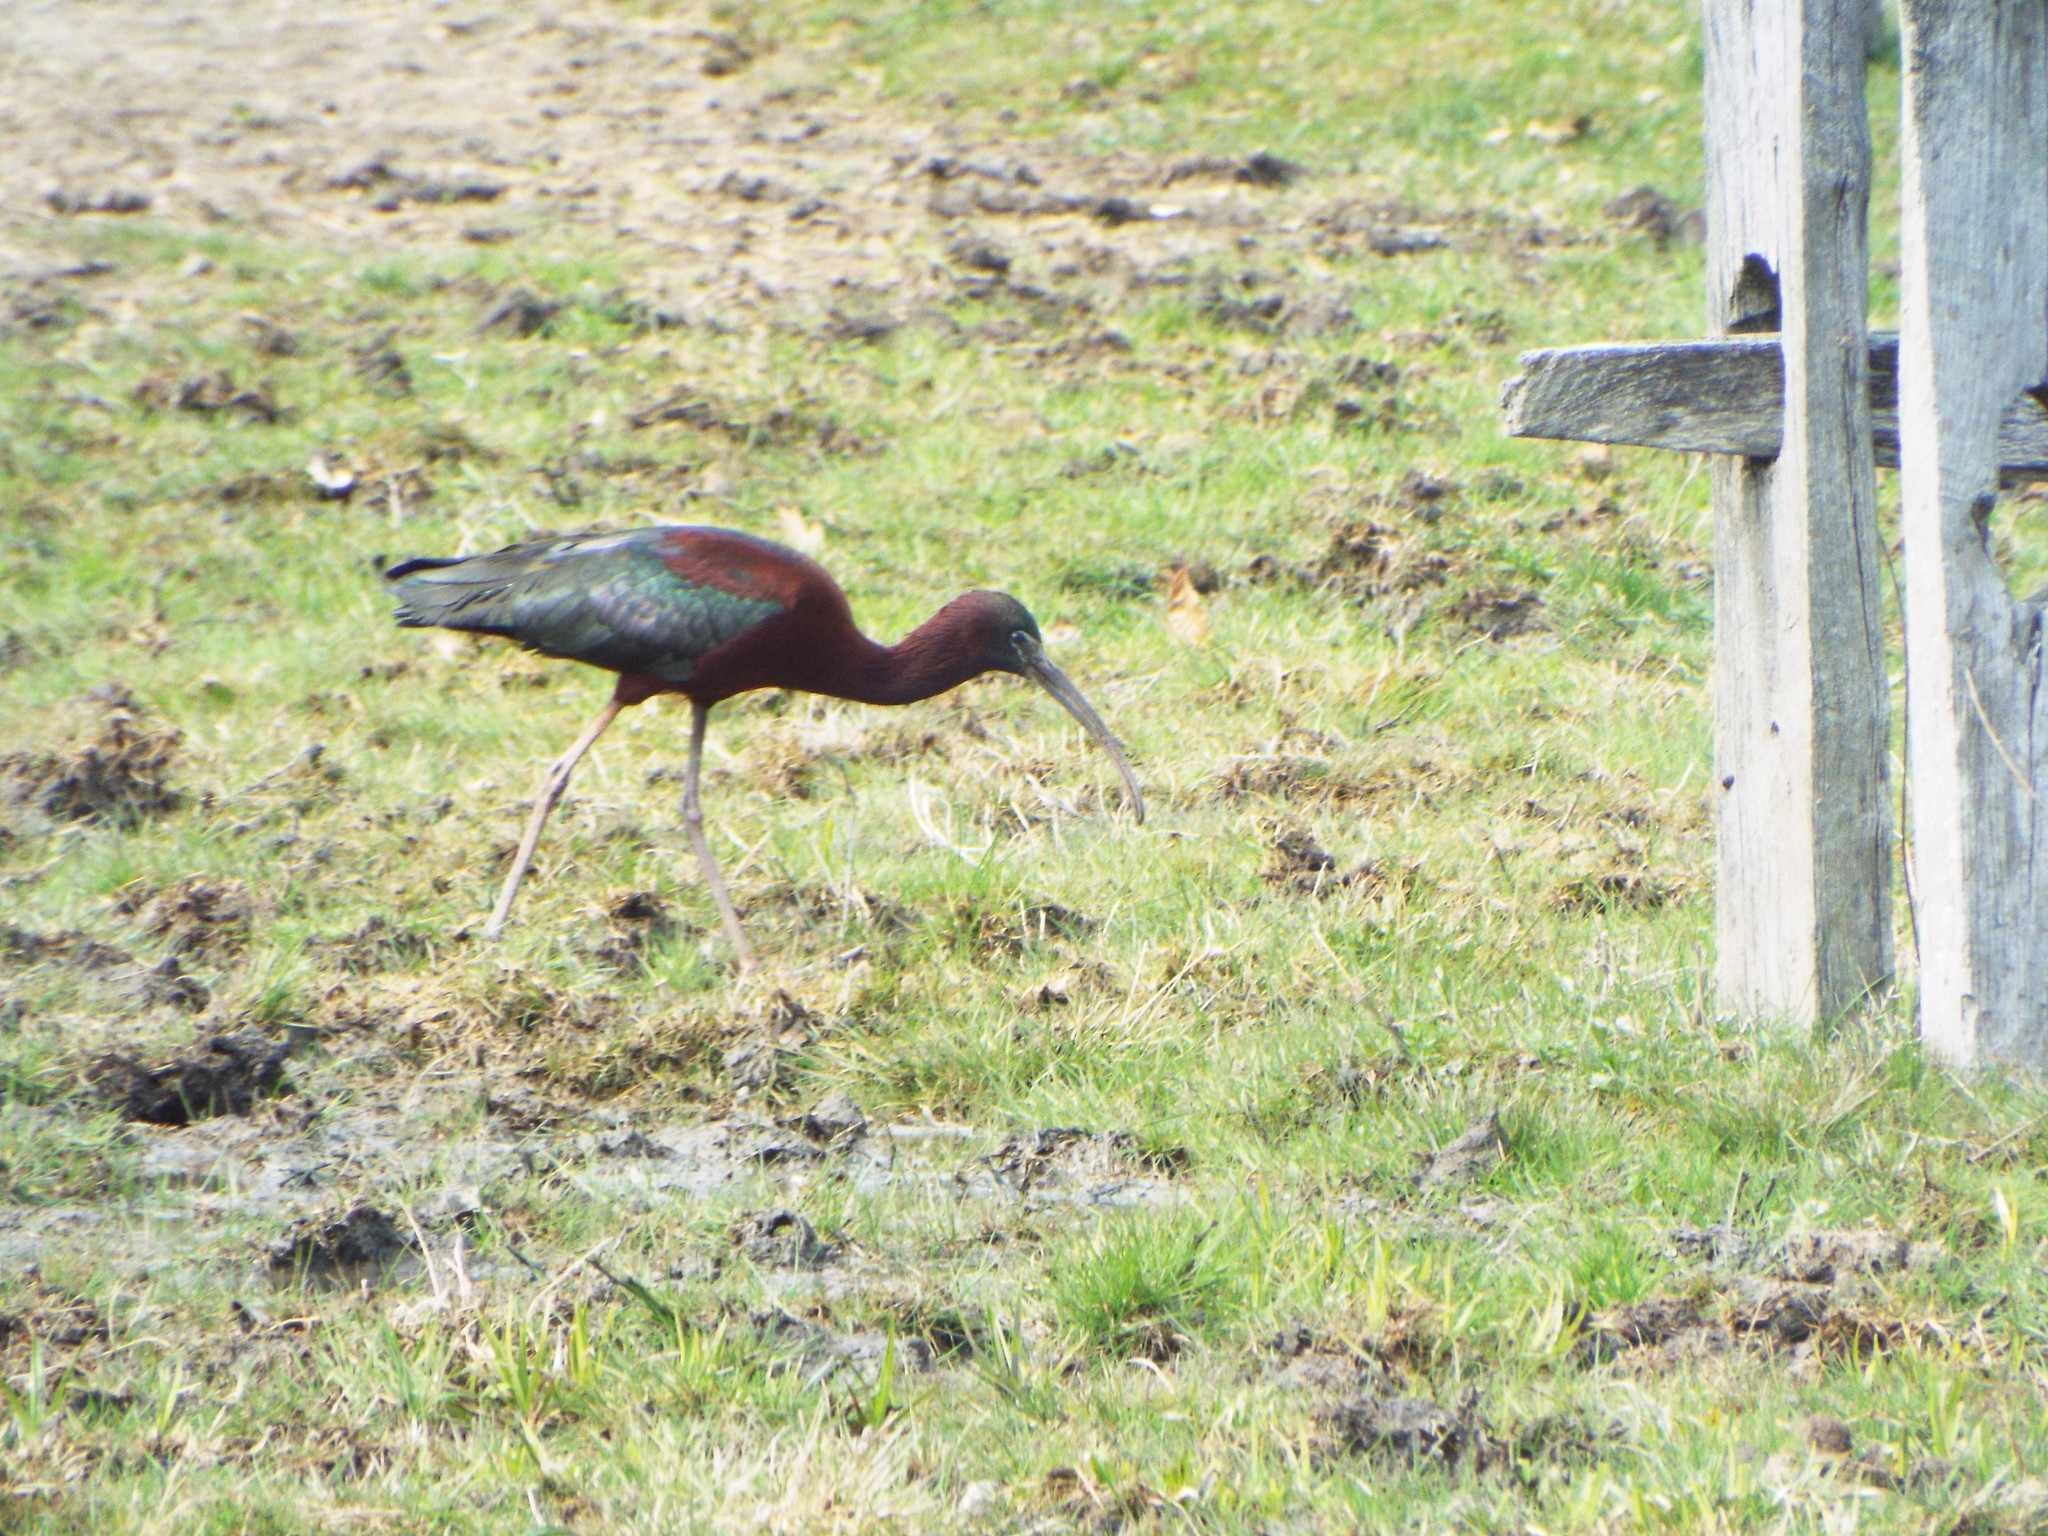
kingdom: Animalia
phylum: Chordata
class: Aves
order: Pelecaniformes
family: Threskiornithidae
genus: Plegadis
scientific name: Plegadis falcinellus
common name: Glossy ibis
